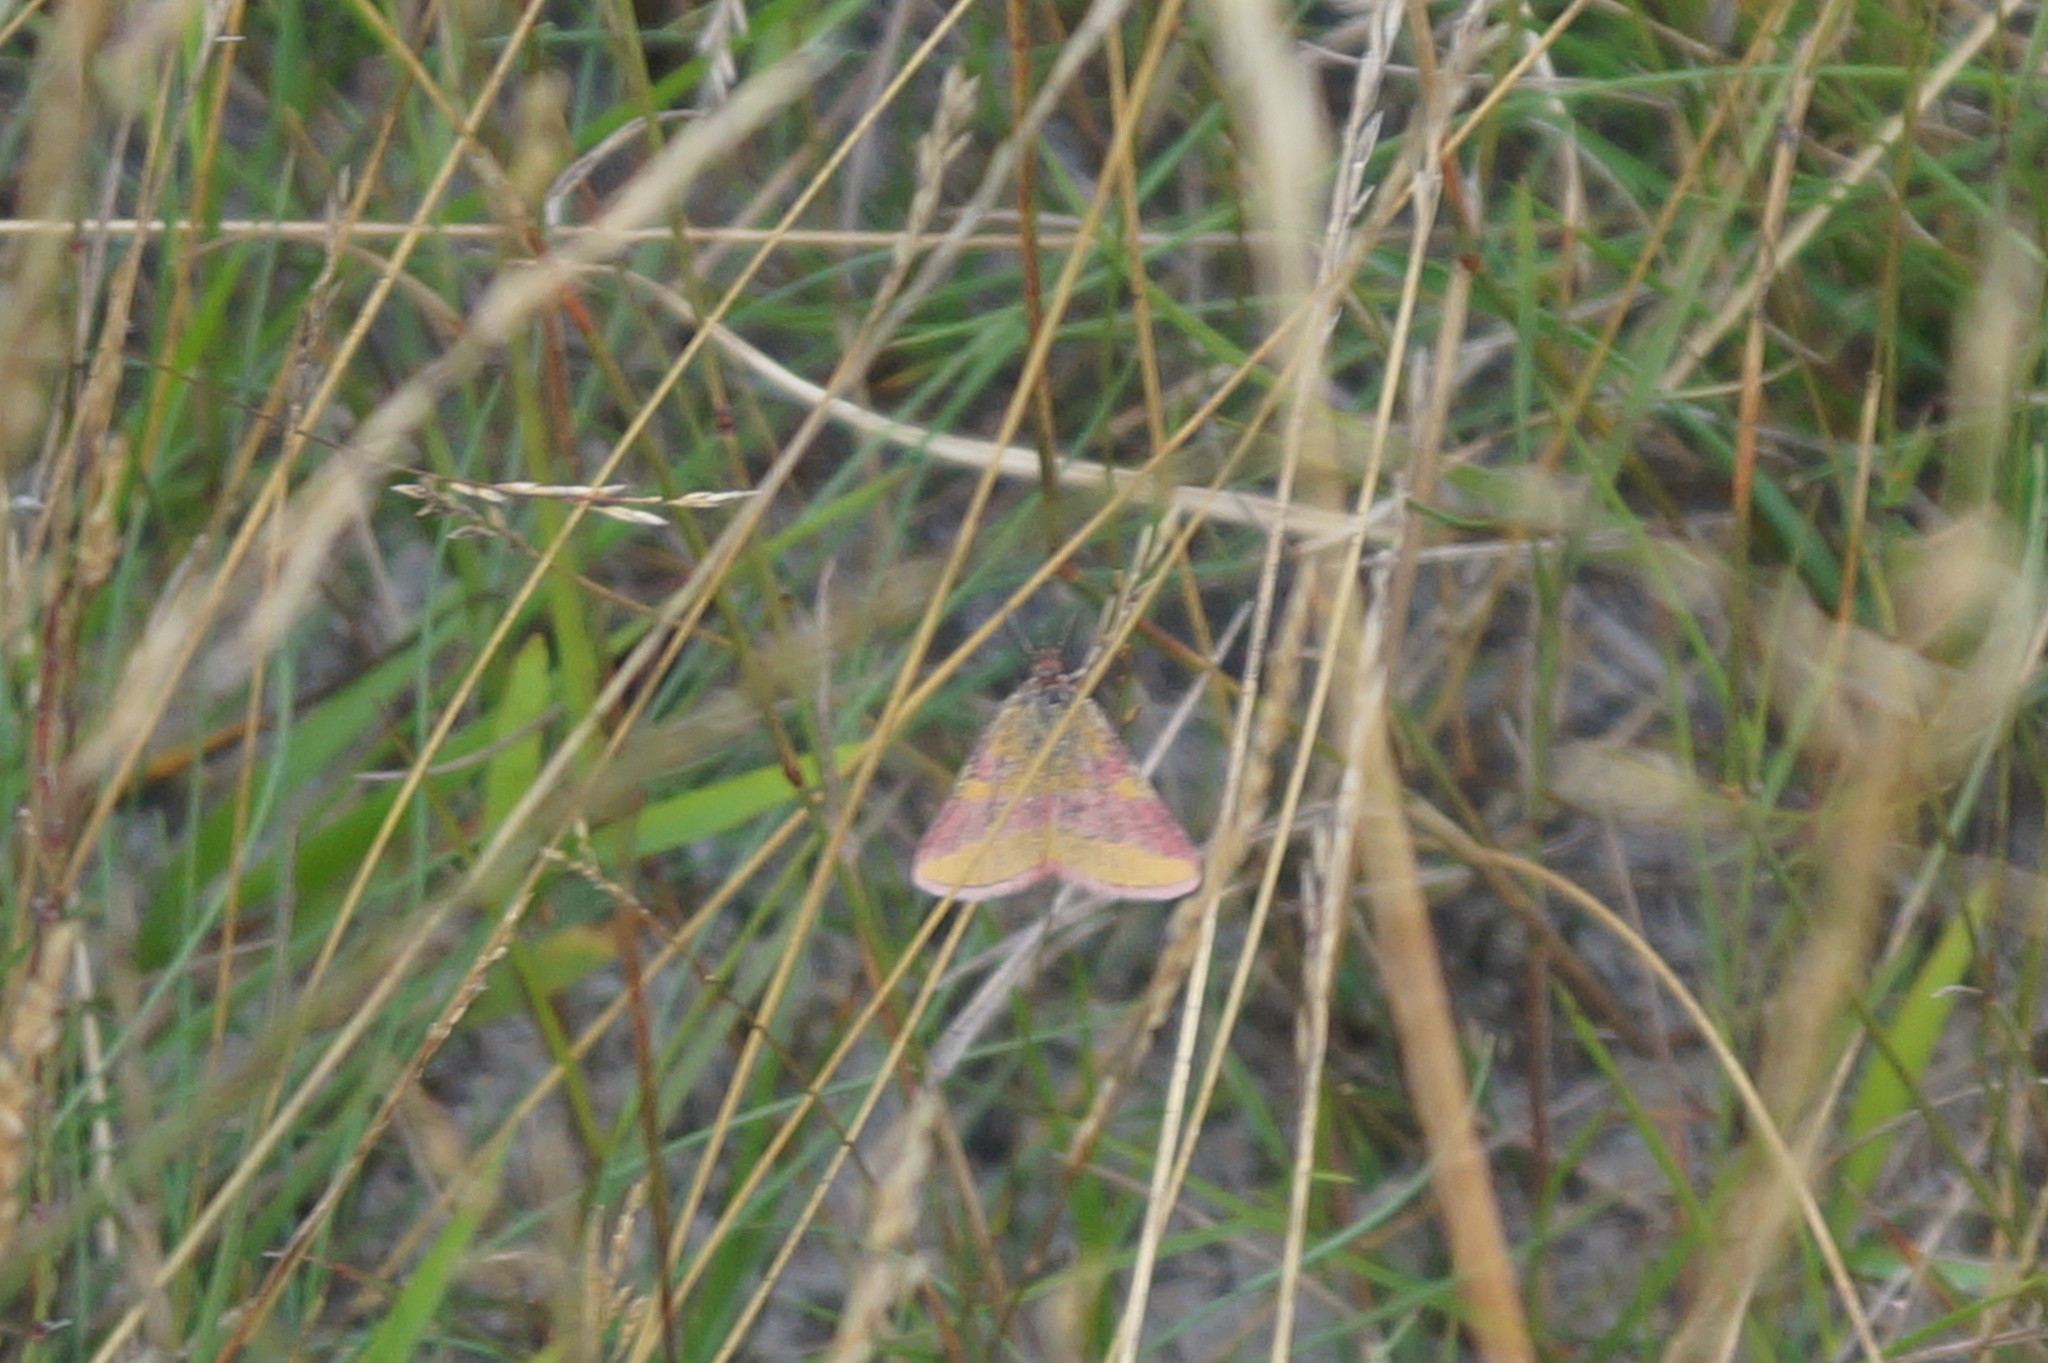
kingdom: Animalia
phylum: Arthropoda
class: Insecta
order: Lepidoptera
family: Geometridae
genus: Lythria
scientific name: Lythria cruentaria
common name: Purple-barred yellow
